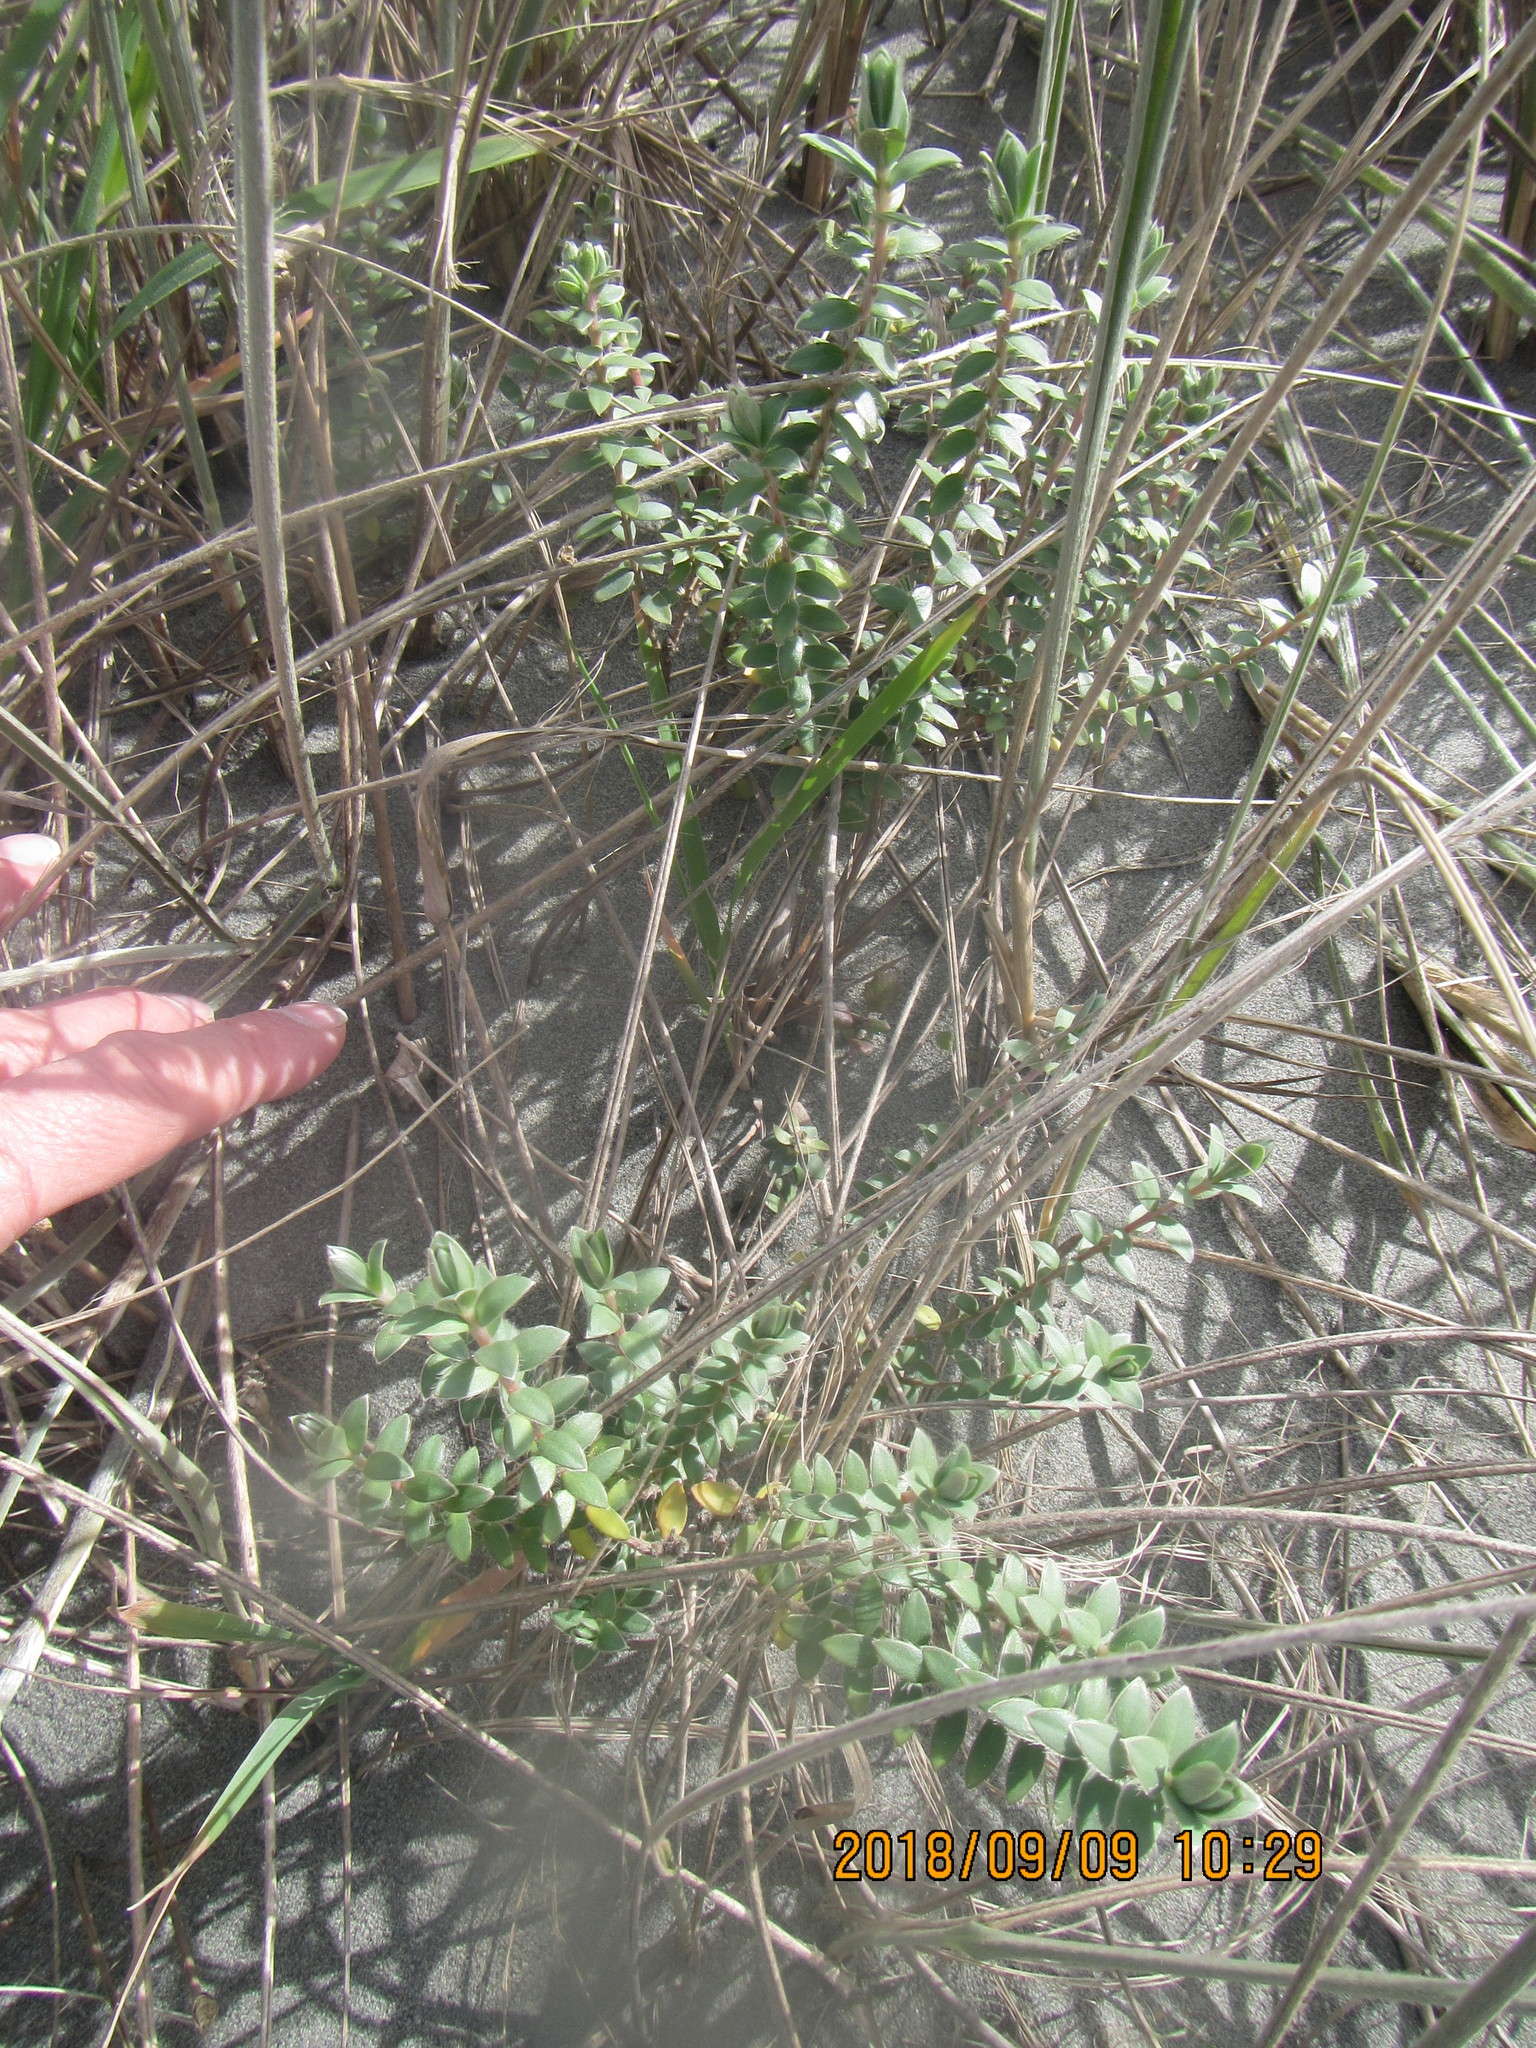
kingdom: Plantae
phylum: Tracheophyta
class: Magnoliopsida
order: Malvales
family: Thymelaeaceae
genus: Pimelea
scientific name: Pimelea villosa
